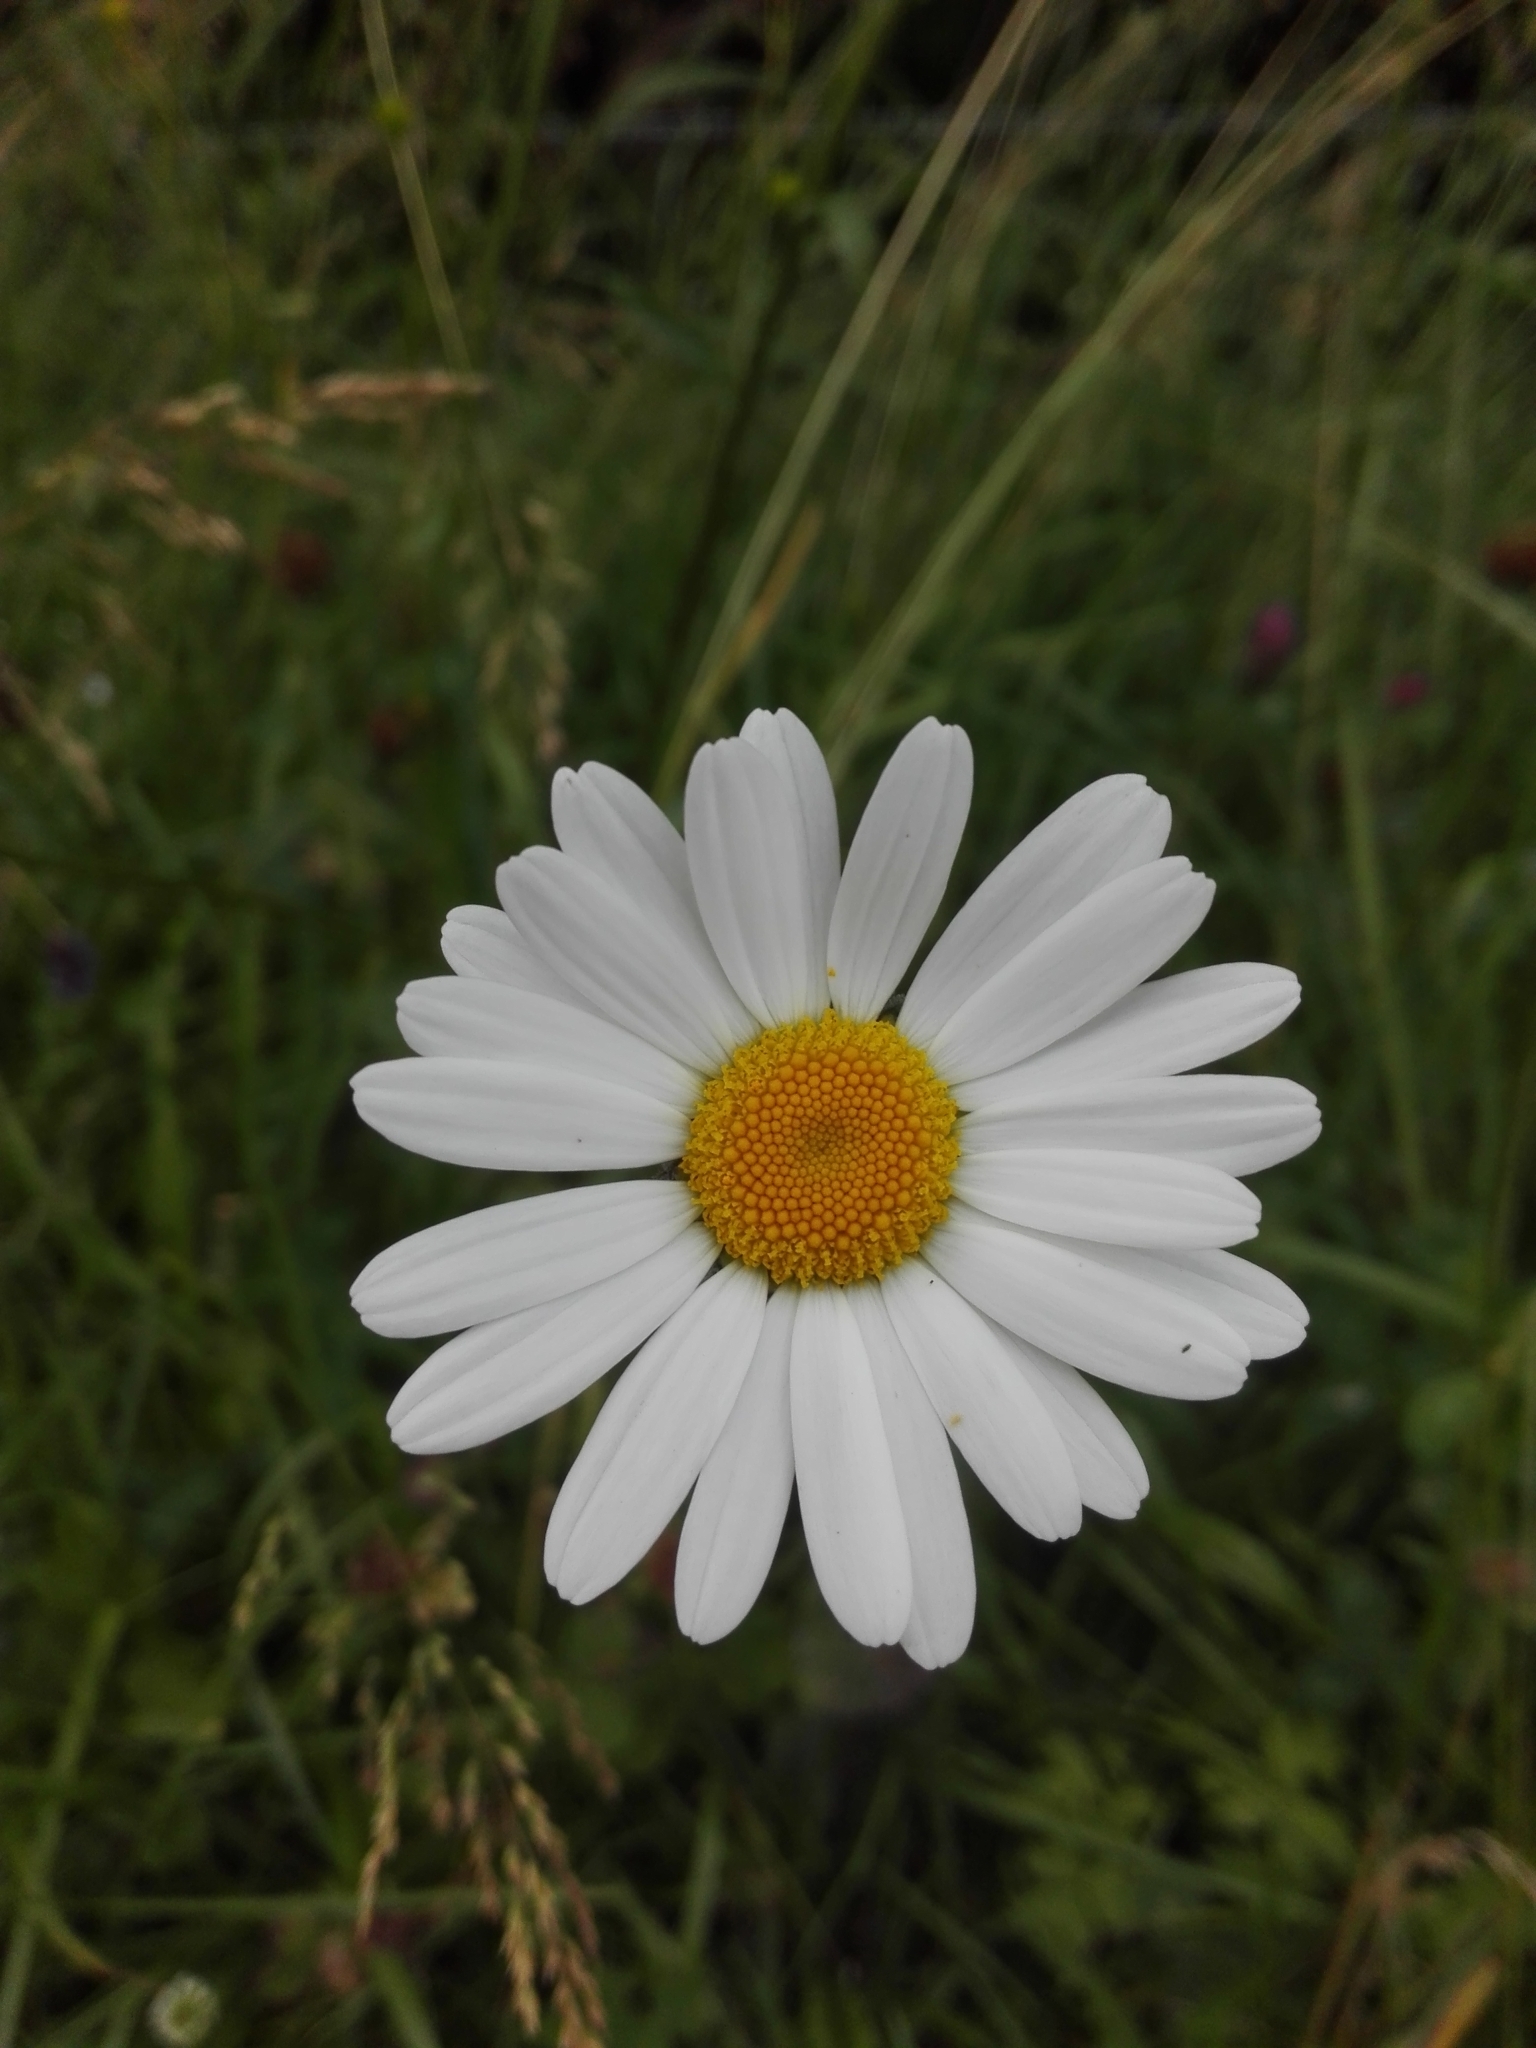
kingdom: Plantae
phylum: Tracheophyta
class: Magnoliopsida
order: Asterales
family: Asteraceae
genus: Leucanthemum
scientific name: Leucanthemum vulgare
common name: Oxeye daisy
